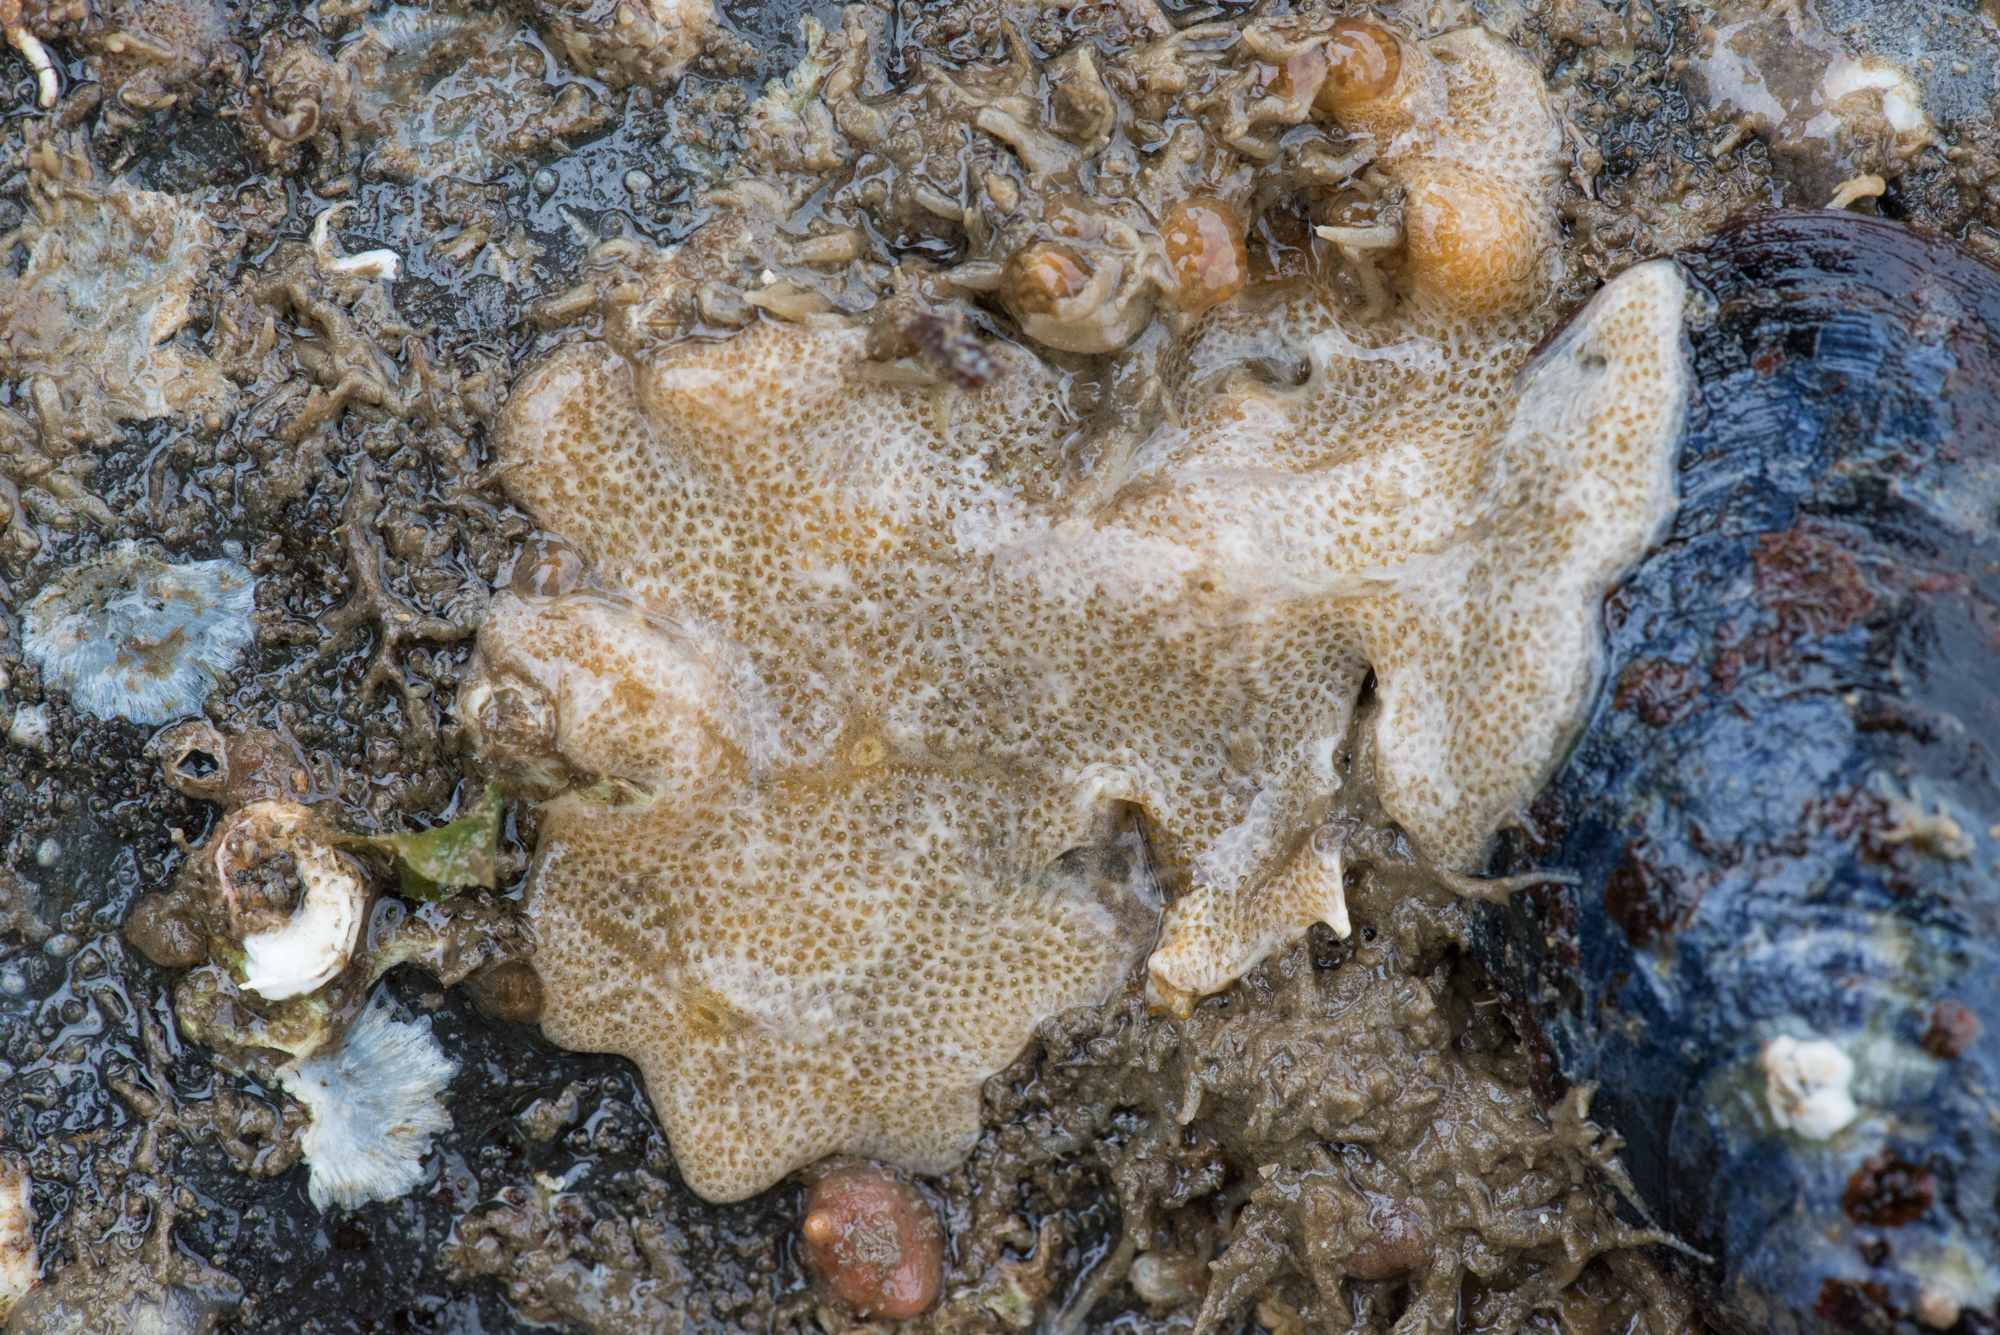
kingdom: Animalia
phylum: Chordata
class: Ascidiacea
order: Aplousobranchia
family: Didemnidae
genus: Didemnum
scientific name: Didemnum vexillum
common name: Compound sea squirt
